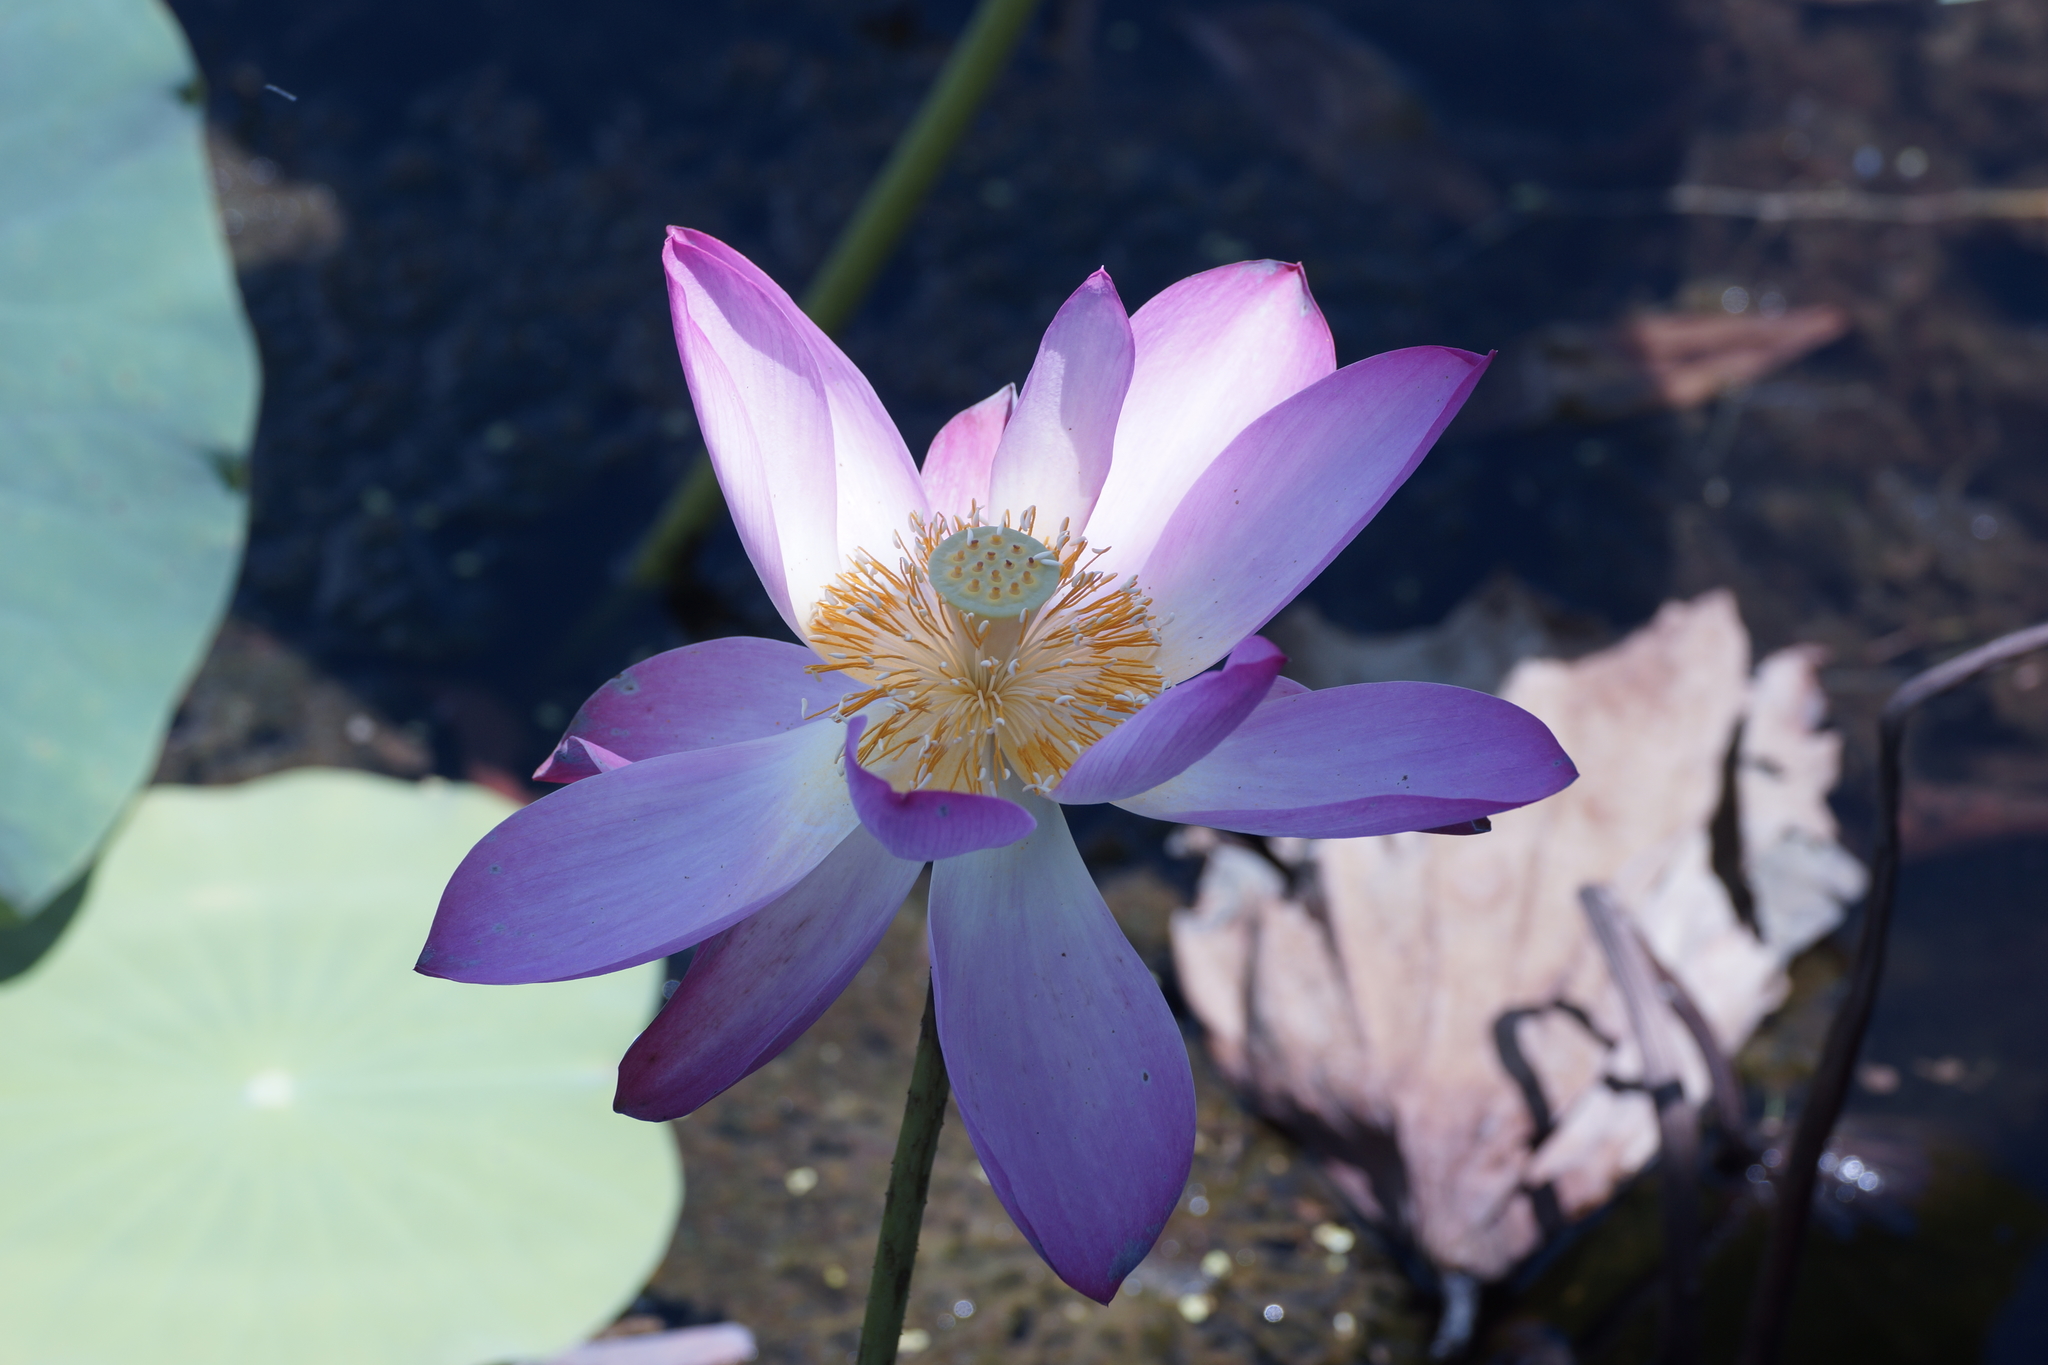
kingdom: Plantae
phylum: Tracheophyta
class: Magnoliopsida
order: Proteales
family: Nelumbonaceae
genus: Nelumbo
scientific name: Nelumbo nucifera
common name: Sacred lotus
